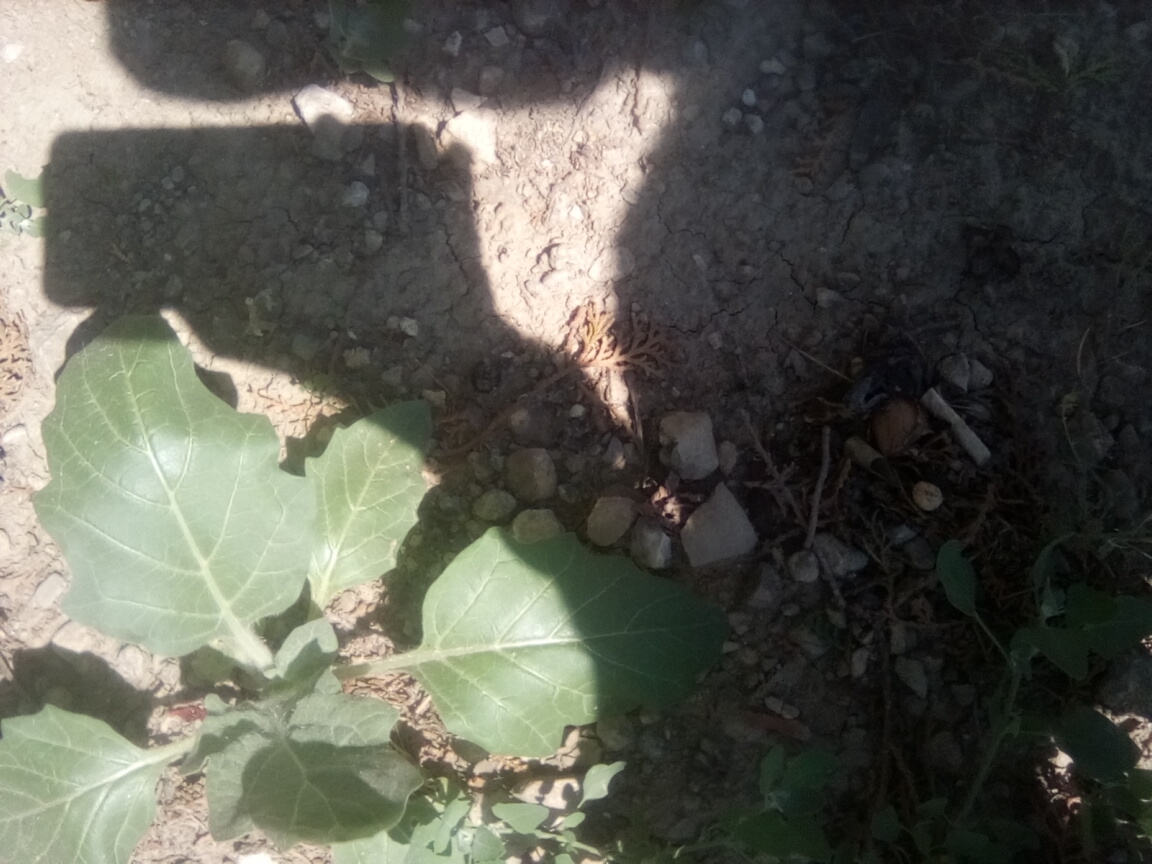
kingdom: Plantae
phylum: Tracheophyta
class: Magnoliopsida
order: Solanales
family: Solanaceae
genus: Hyoscyamus
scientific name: Hyoscyamus niger
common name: Henbane
